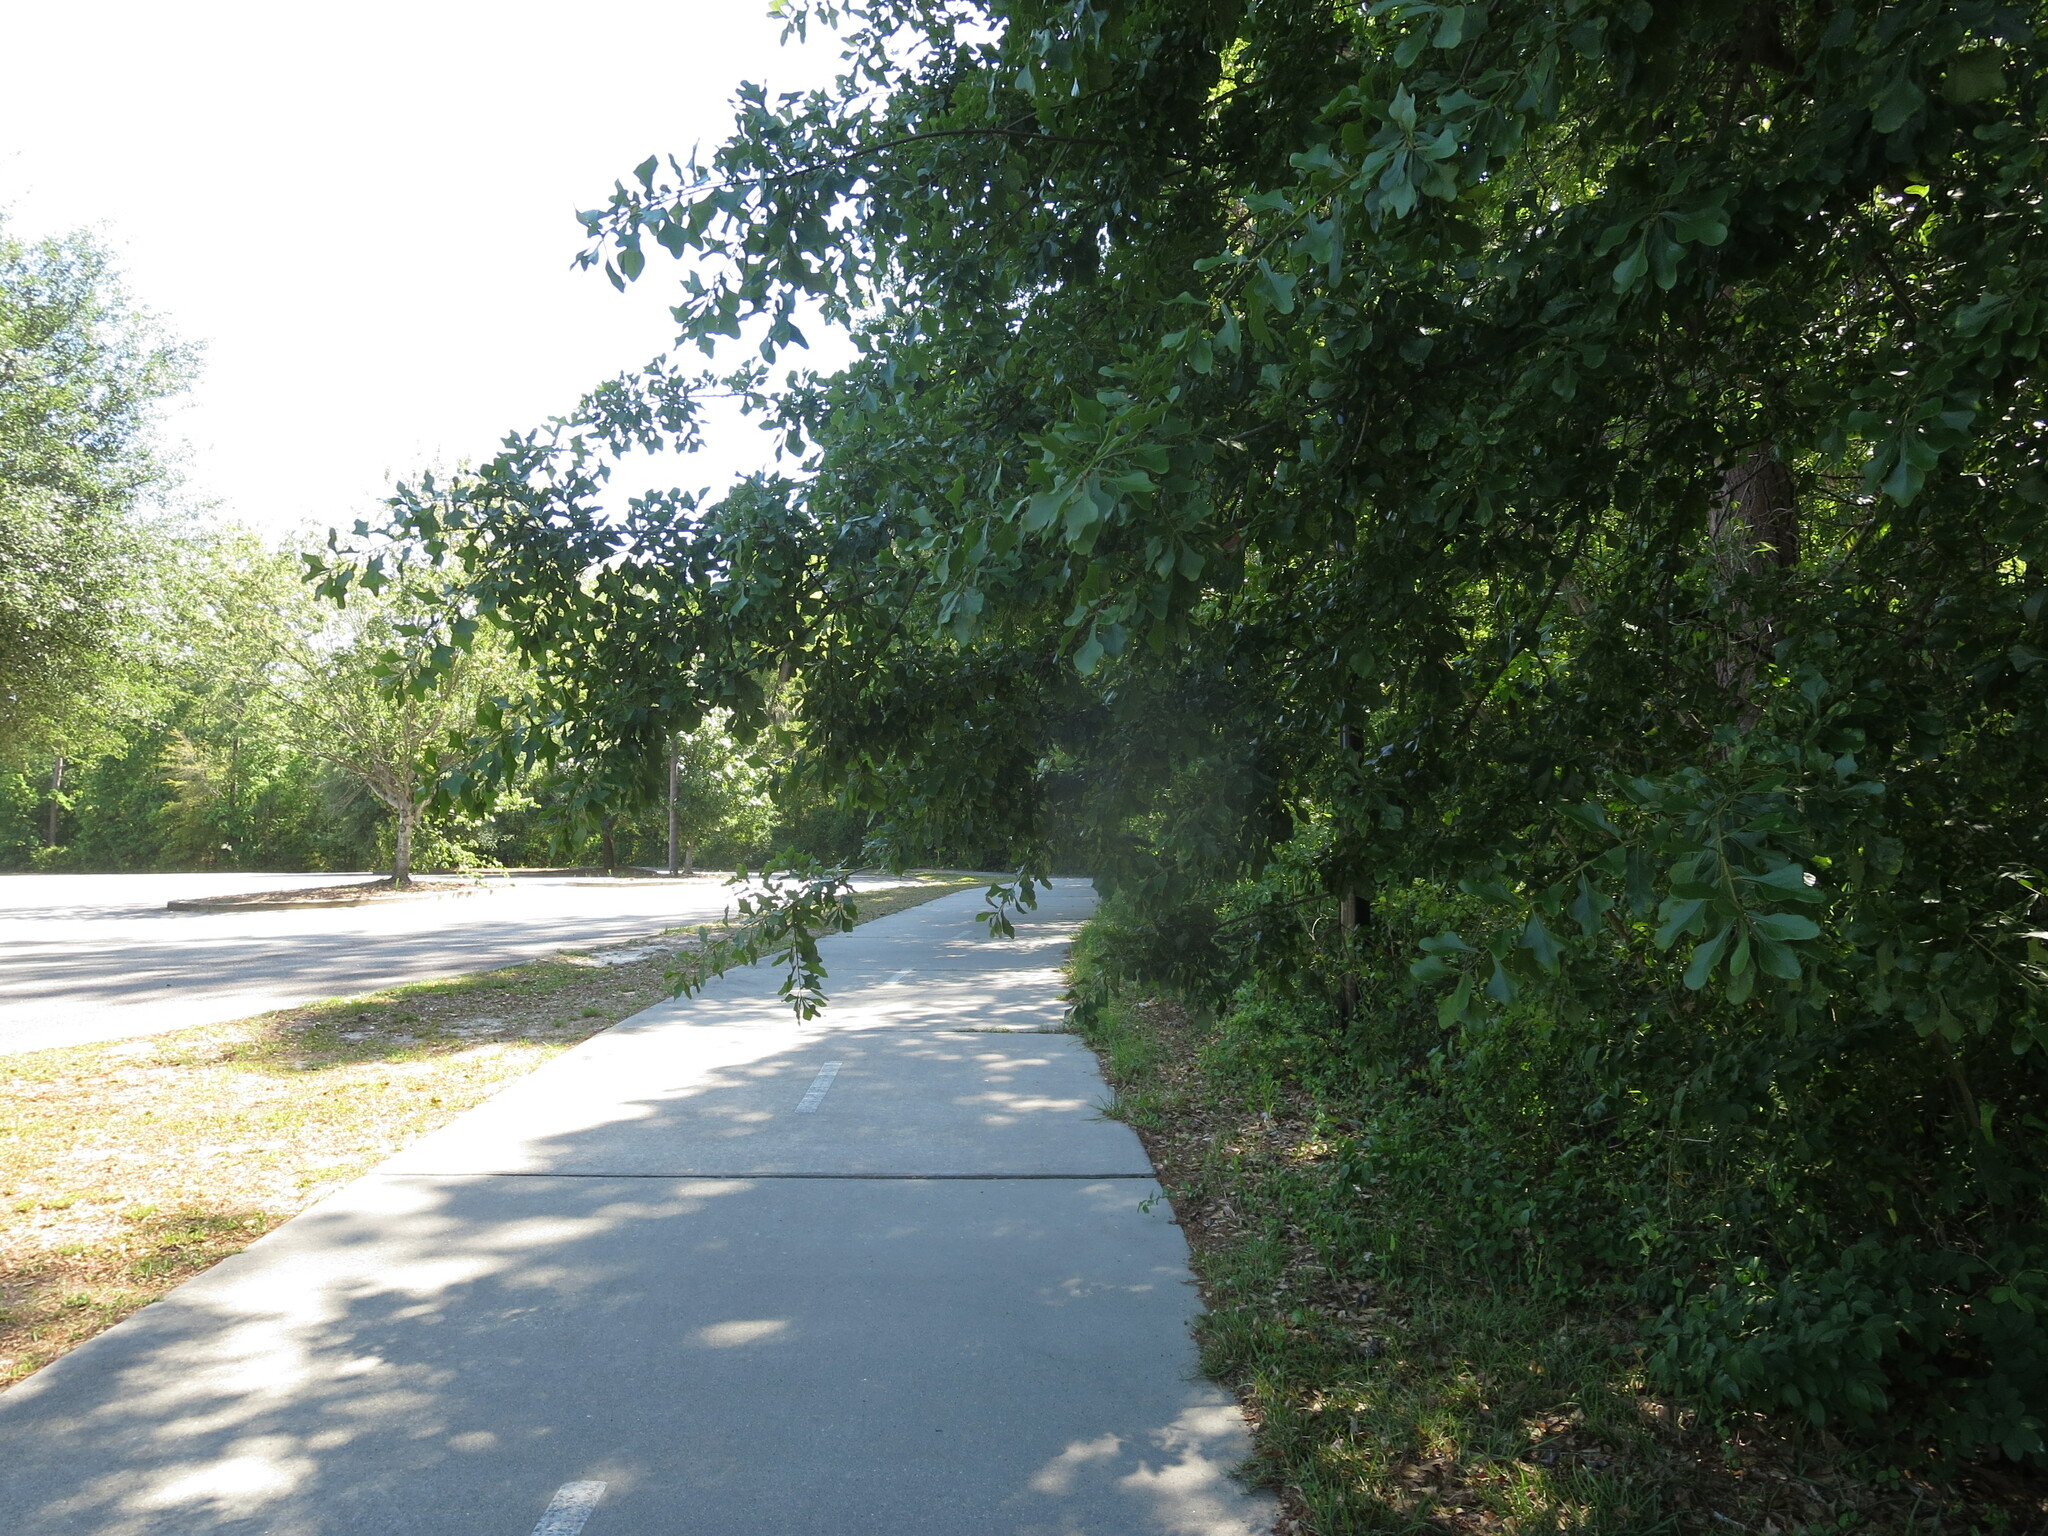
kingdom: Plantae
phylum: Tracheophyta
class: Magnoliopsida
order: Fagales
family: Fagaceae
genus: Quercus
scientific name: Quercus nigra
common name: Water oak
